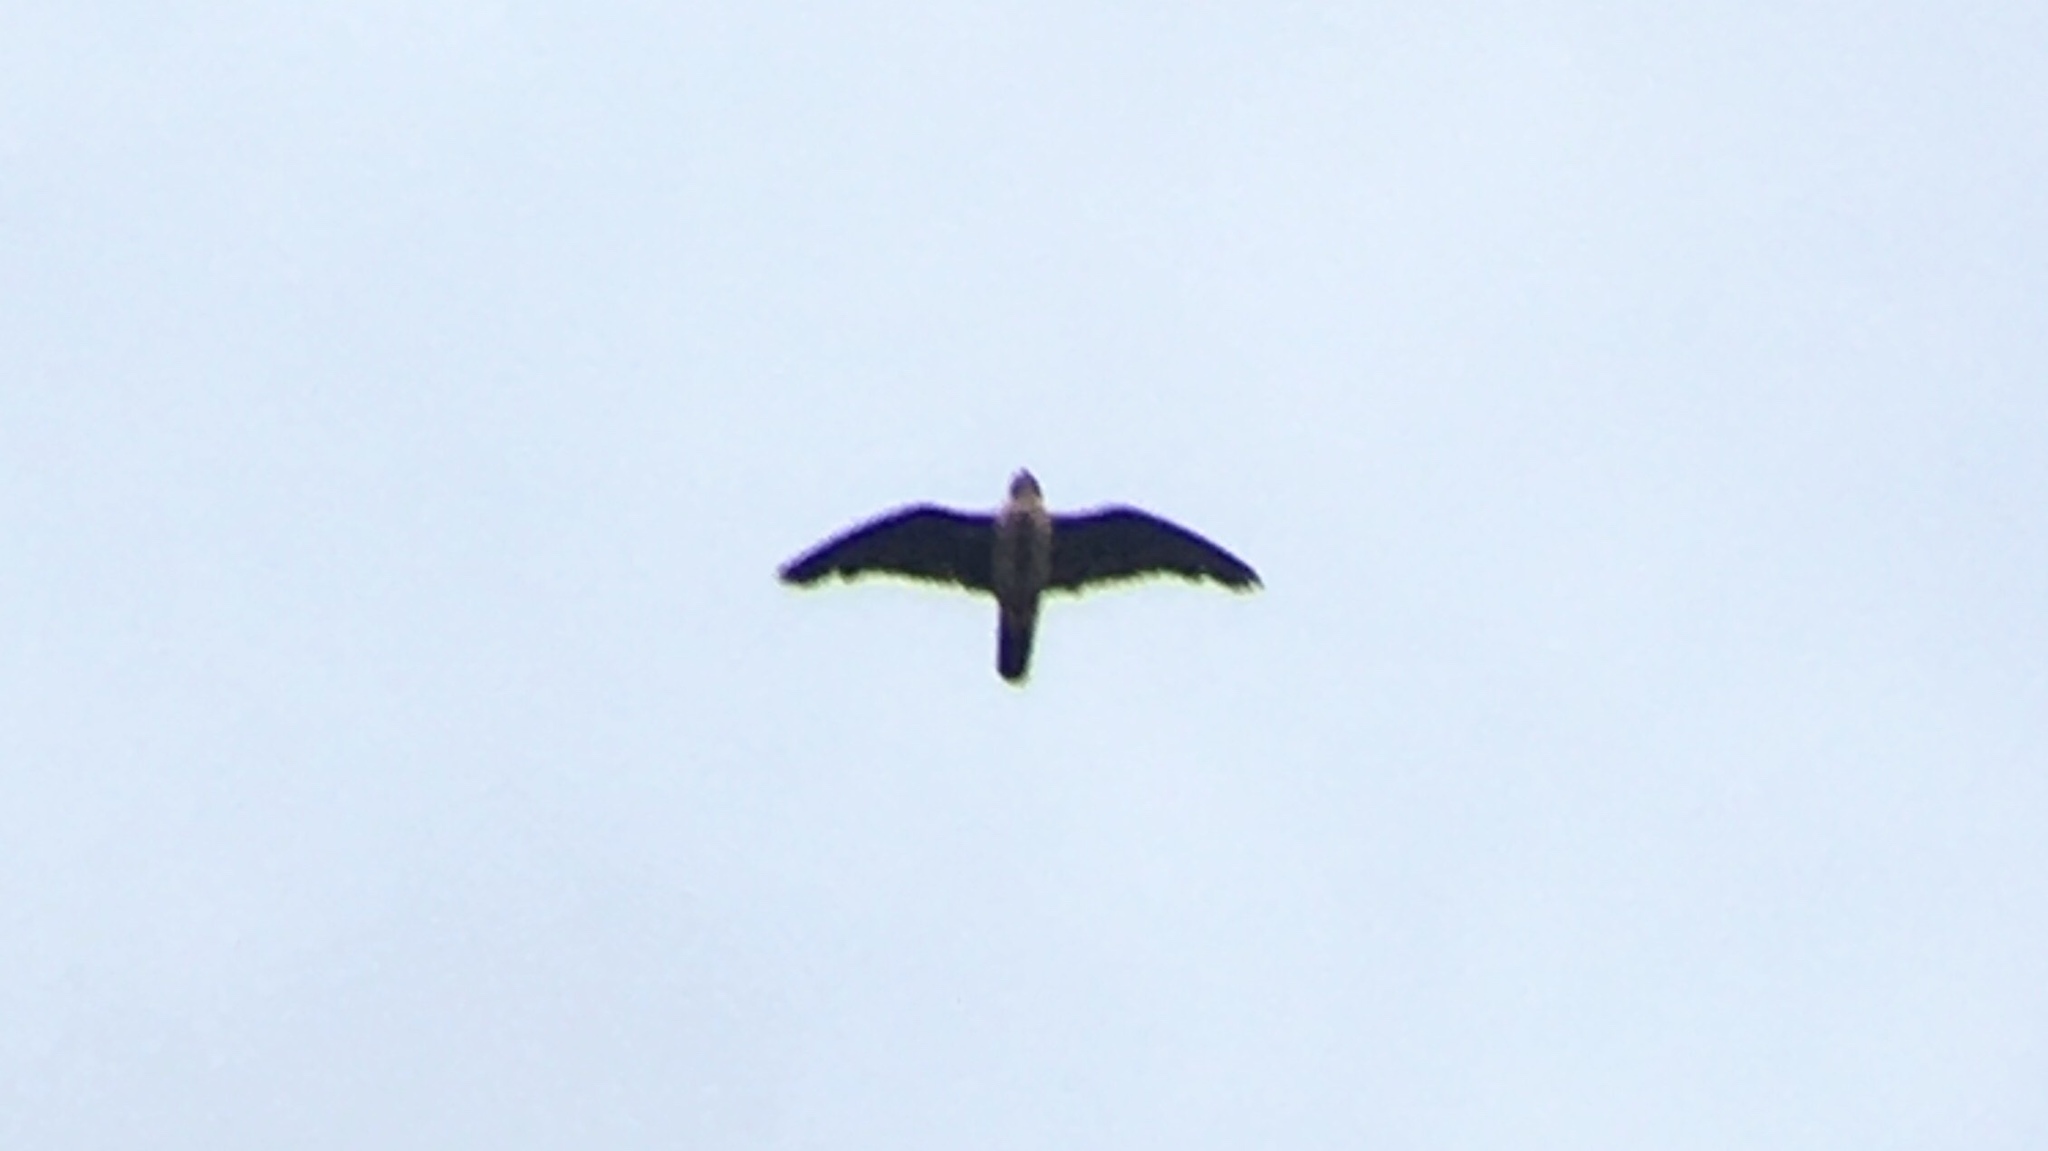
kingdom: Animalia
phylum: Chordata
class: Aves
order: Falconiformes
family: Falconidae
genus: Falco
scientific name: Falco peregrinus
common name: Peregrine falcon
